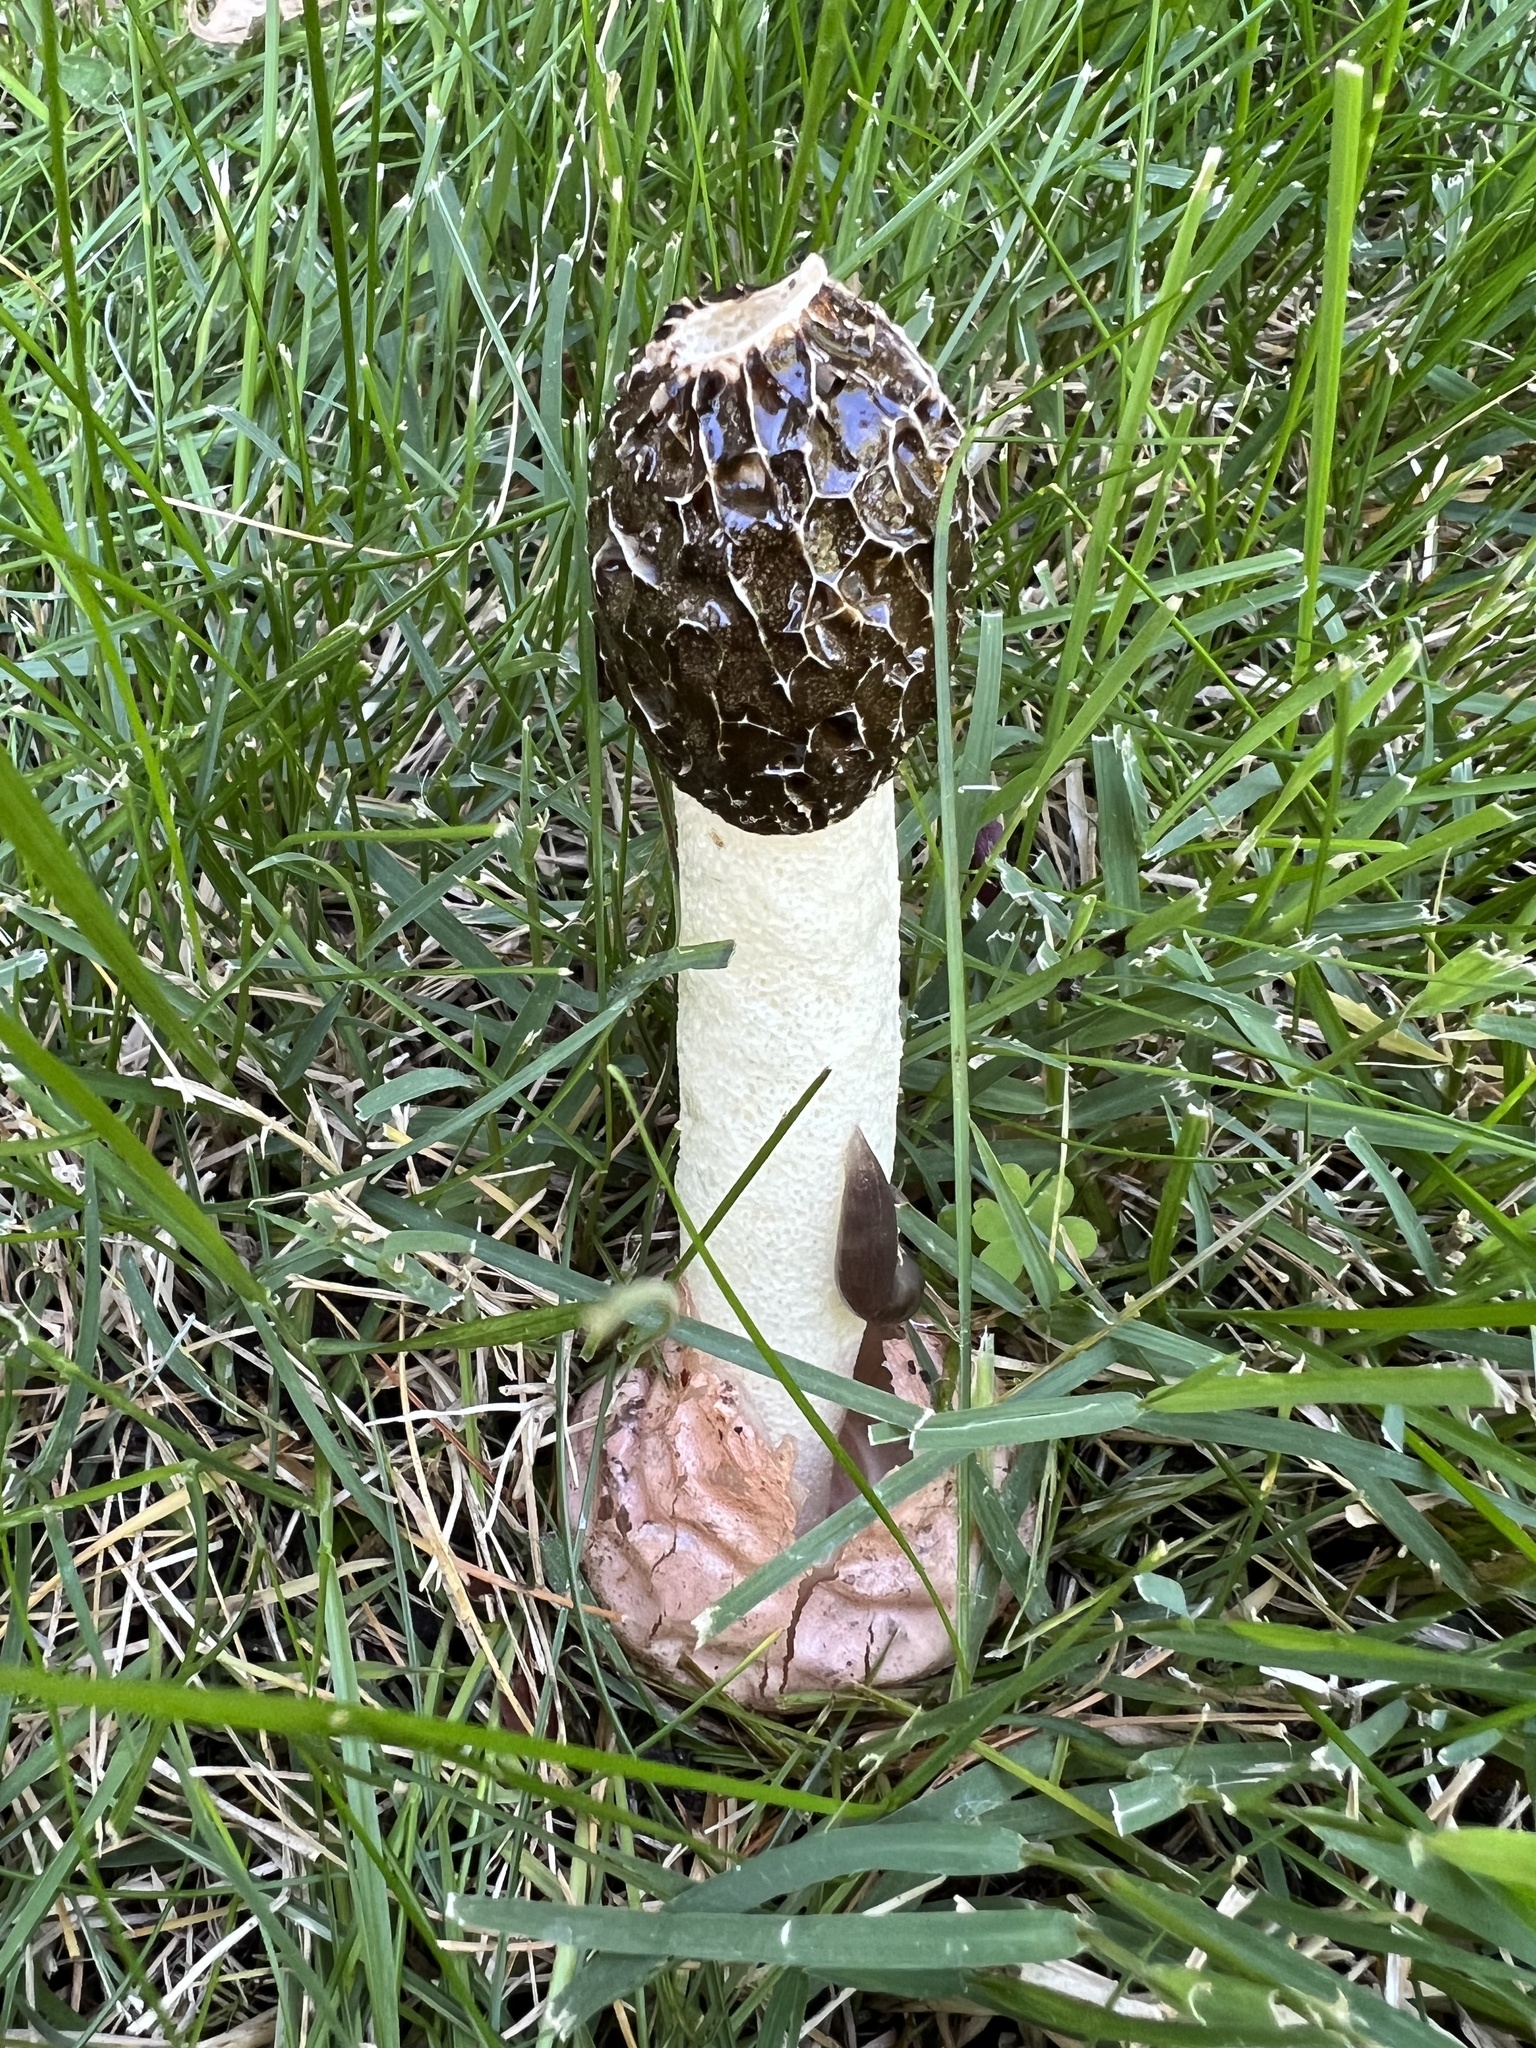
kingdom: Fungi
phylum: Basidiomycota
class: Agaricomycetes
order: Phallales
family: Phallaceae
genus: Phallus
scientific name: Phallus hadriani
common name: Sand stinkhorn
